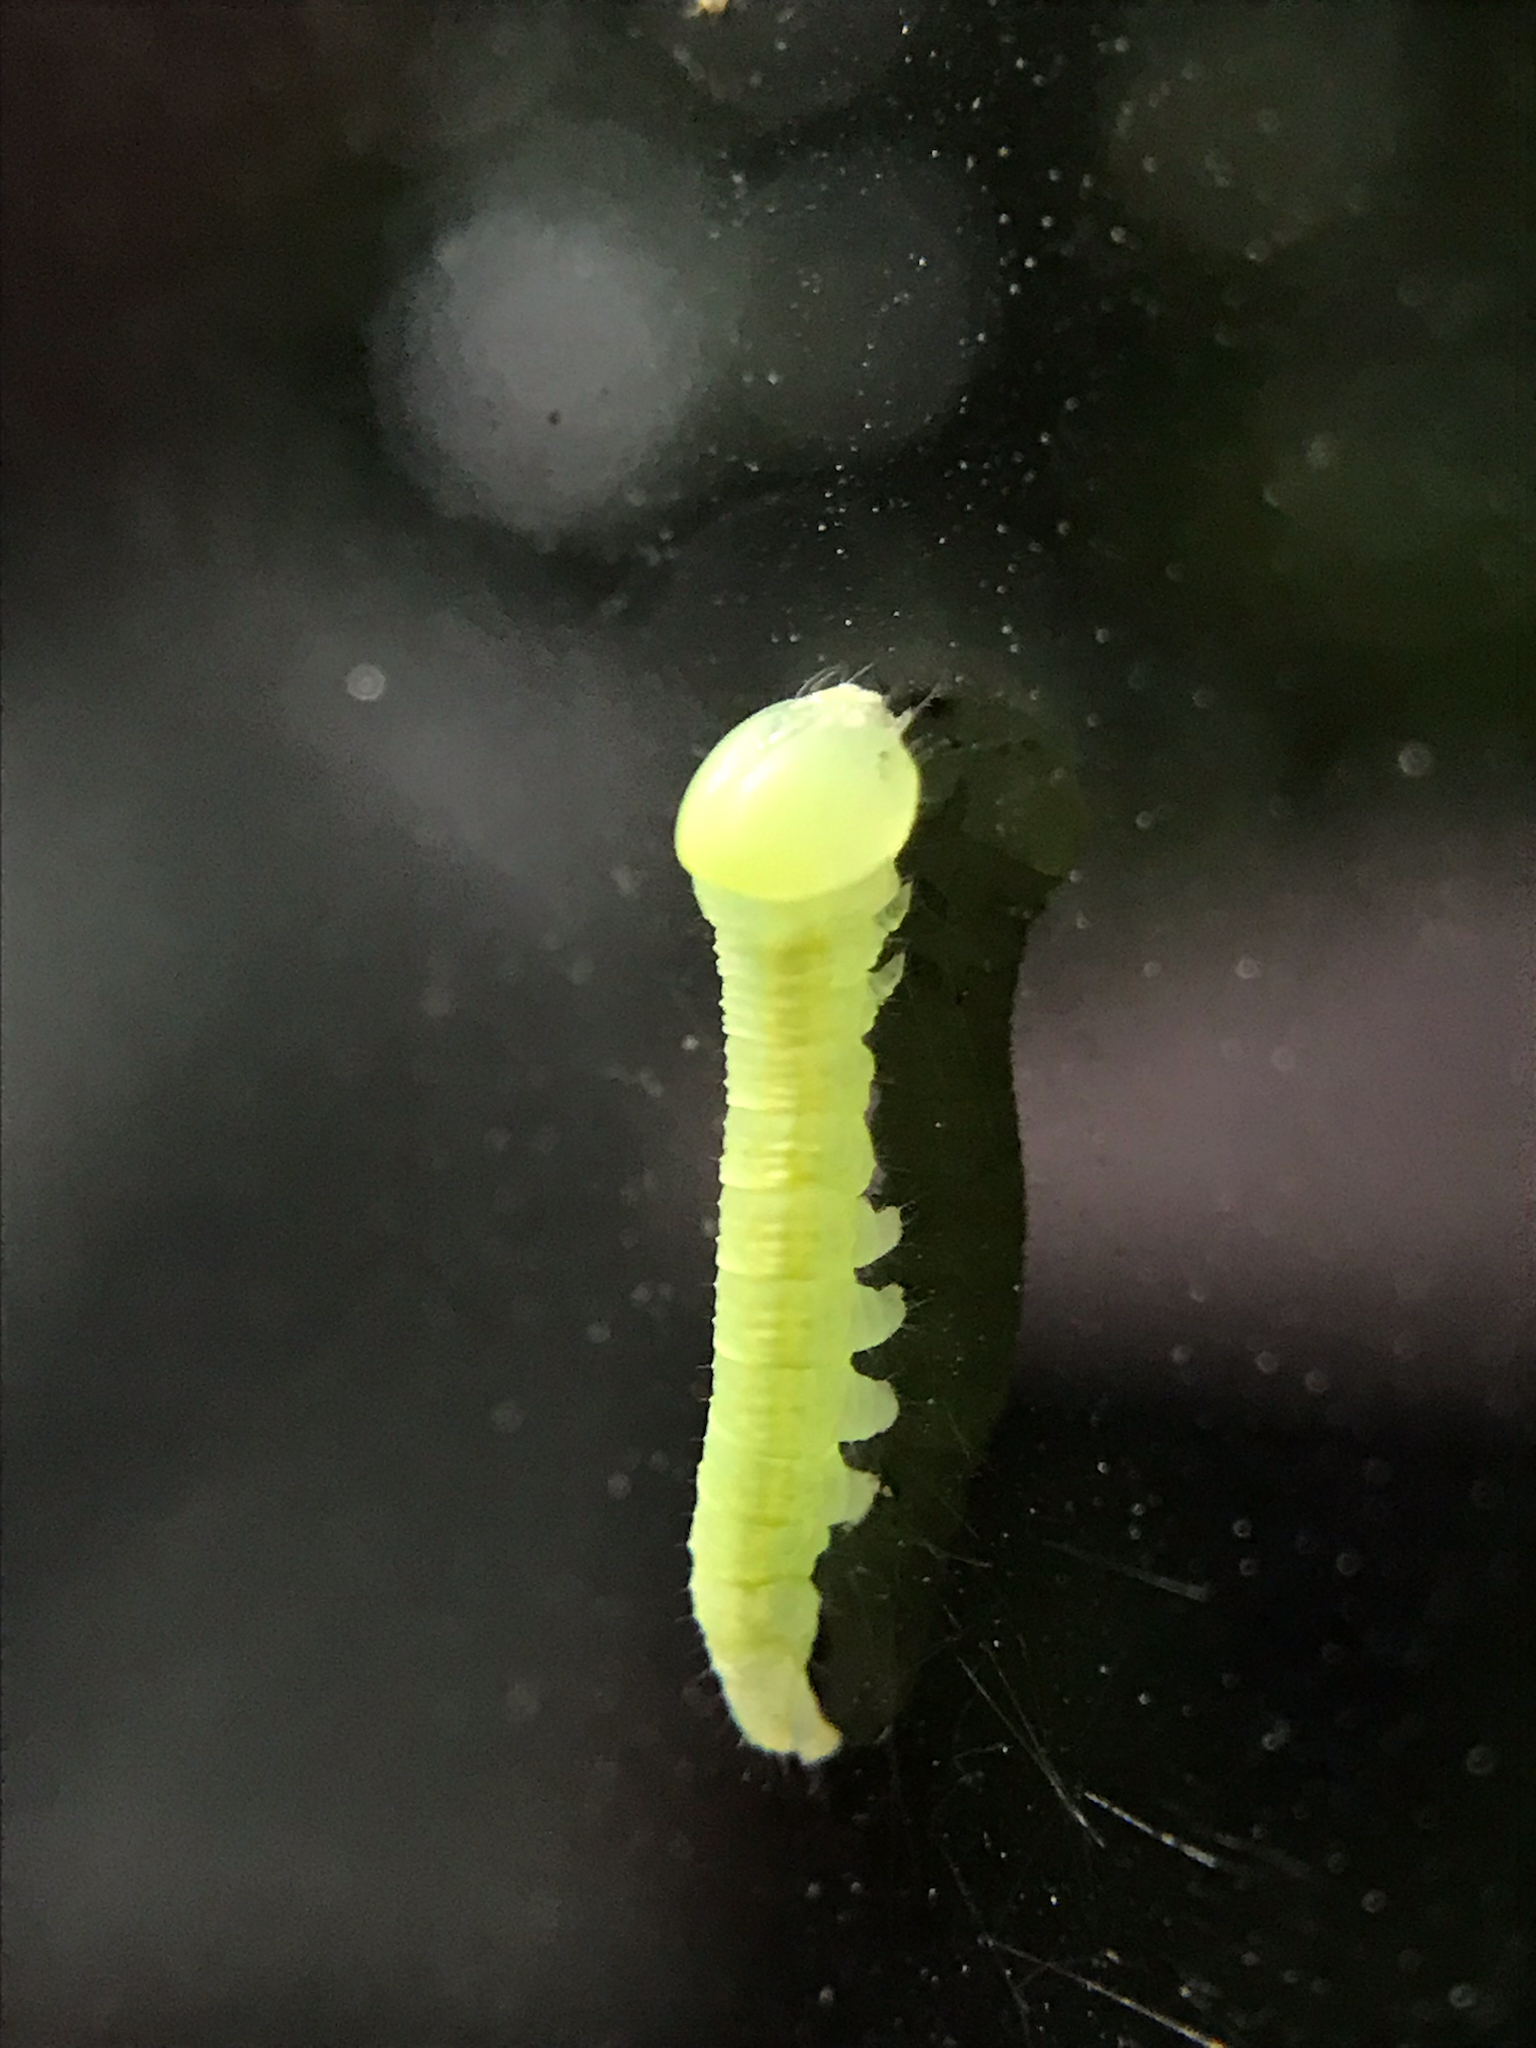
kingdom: Animalia
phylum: Arthropoda
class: Insecta
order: Lepidoptera
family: Notodontidae
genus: Nadata
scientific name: Nadata gibbosa
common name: White-dotted prominent
